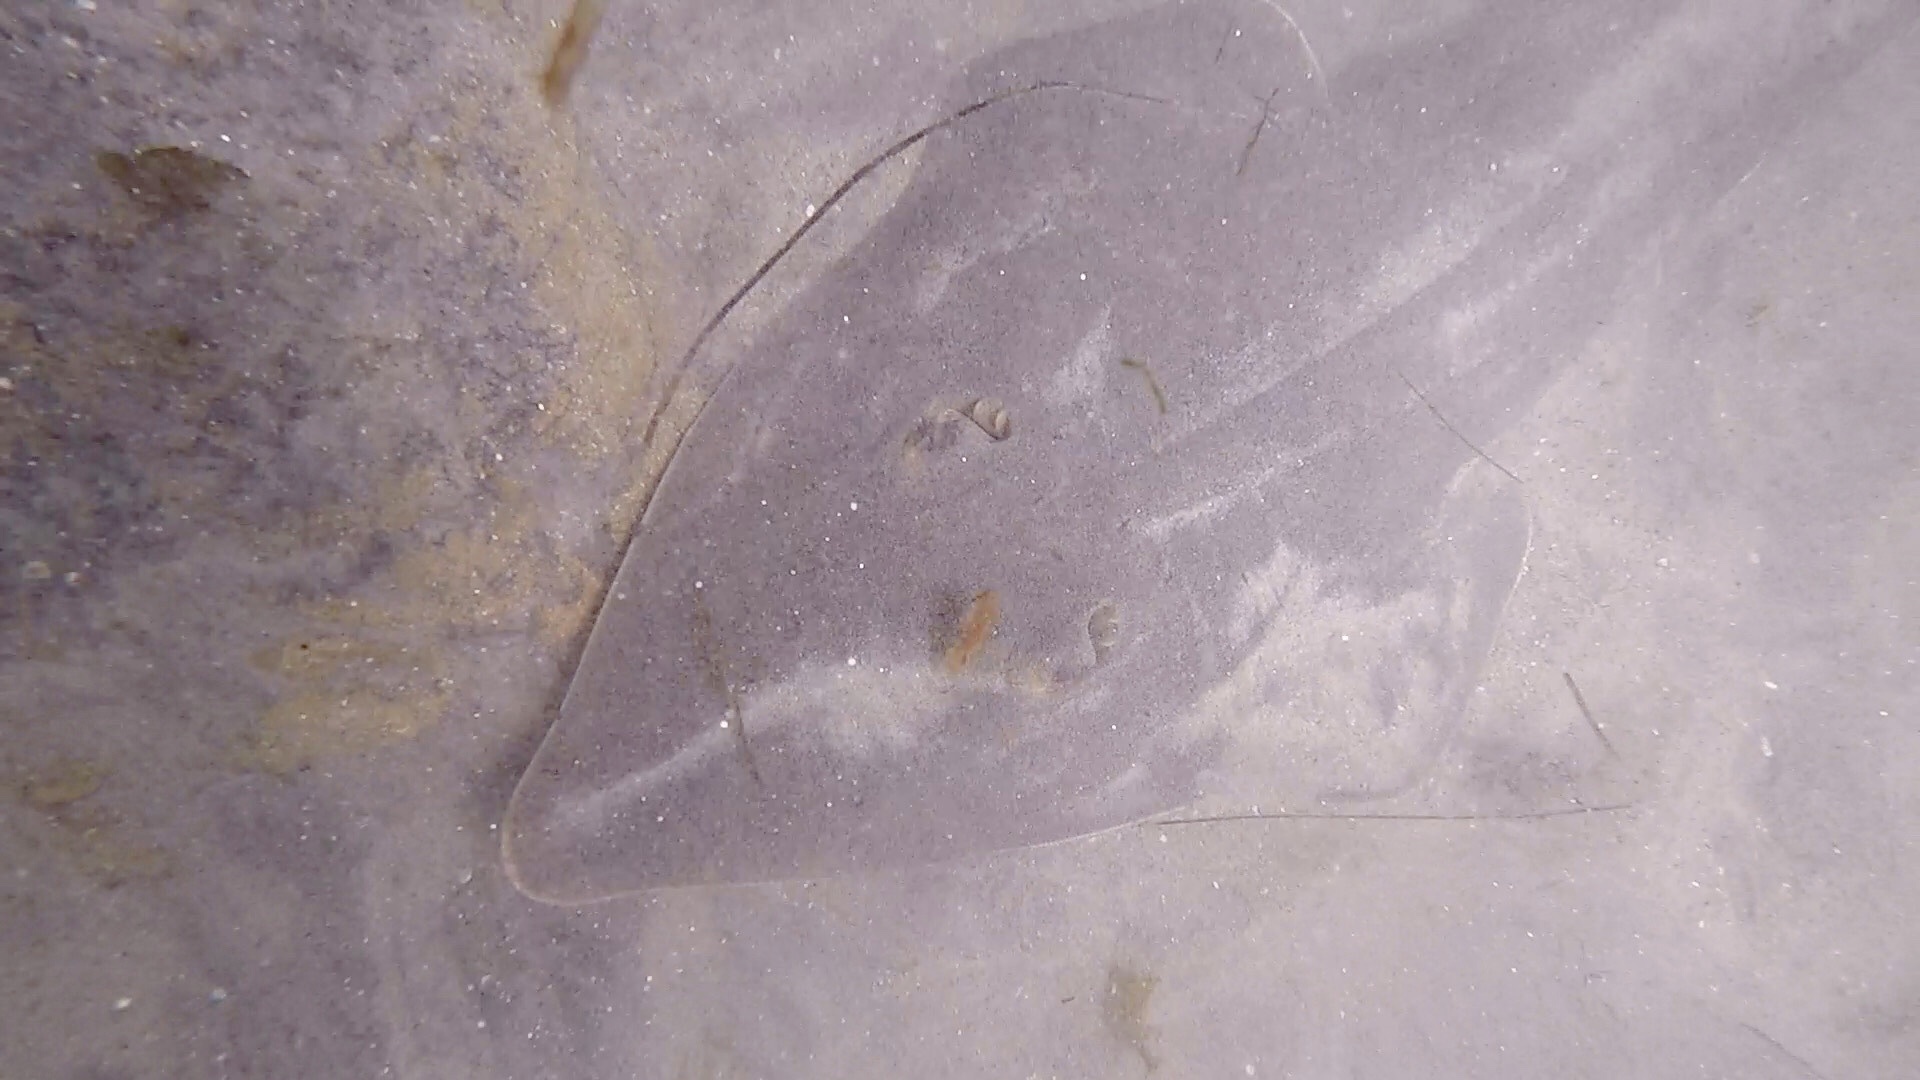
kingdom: Animalia
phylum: Chordata
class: Elasmobranchii
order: Rhinopristiformes
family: Rhinobatidae
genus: Pseudobatos
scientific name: Pseudobatos productus
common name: Shovelnose guitarfish
